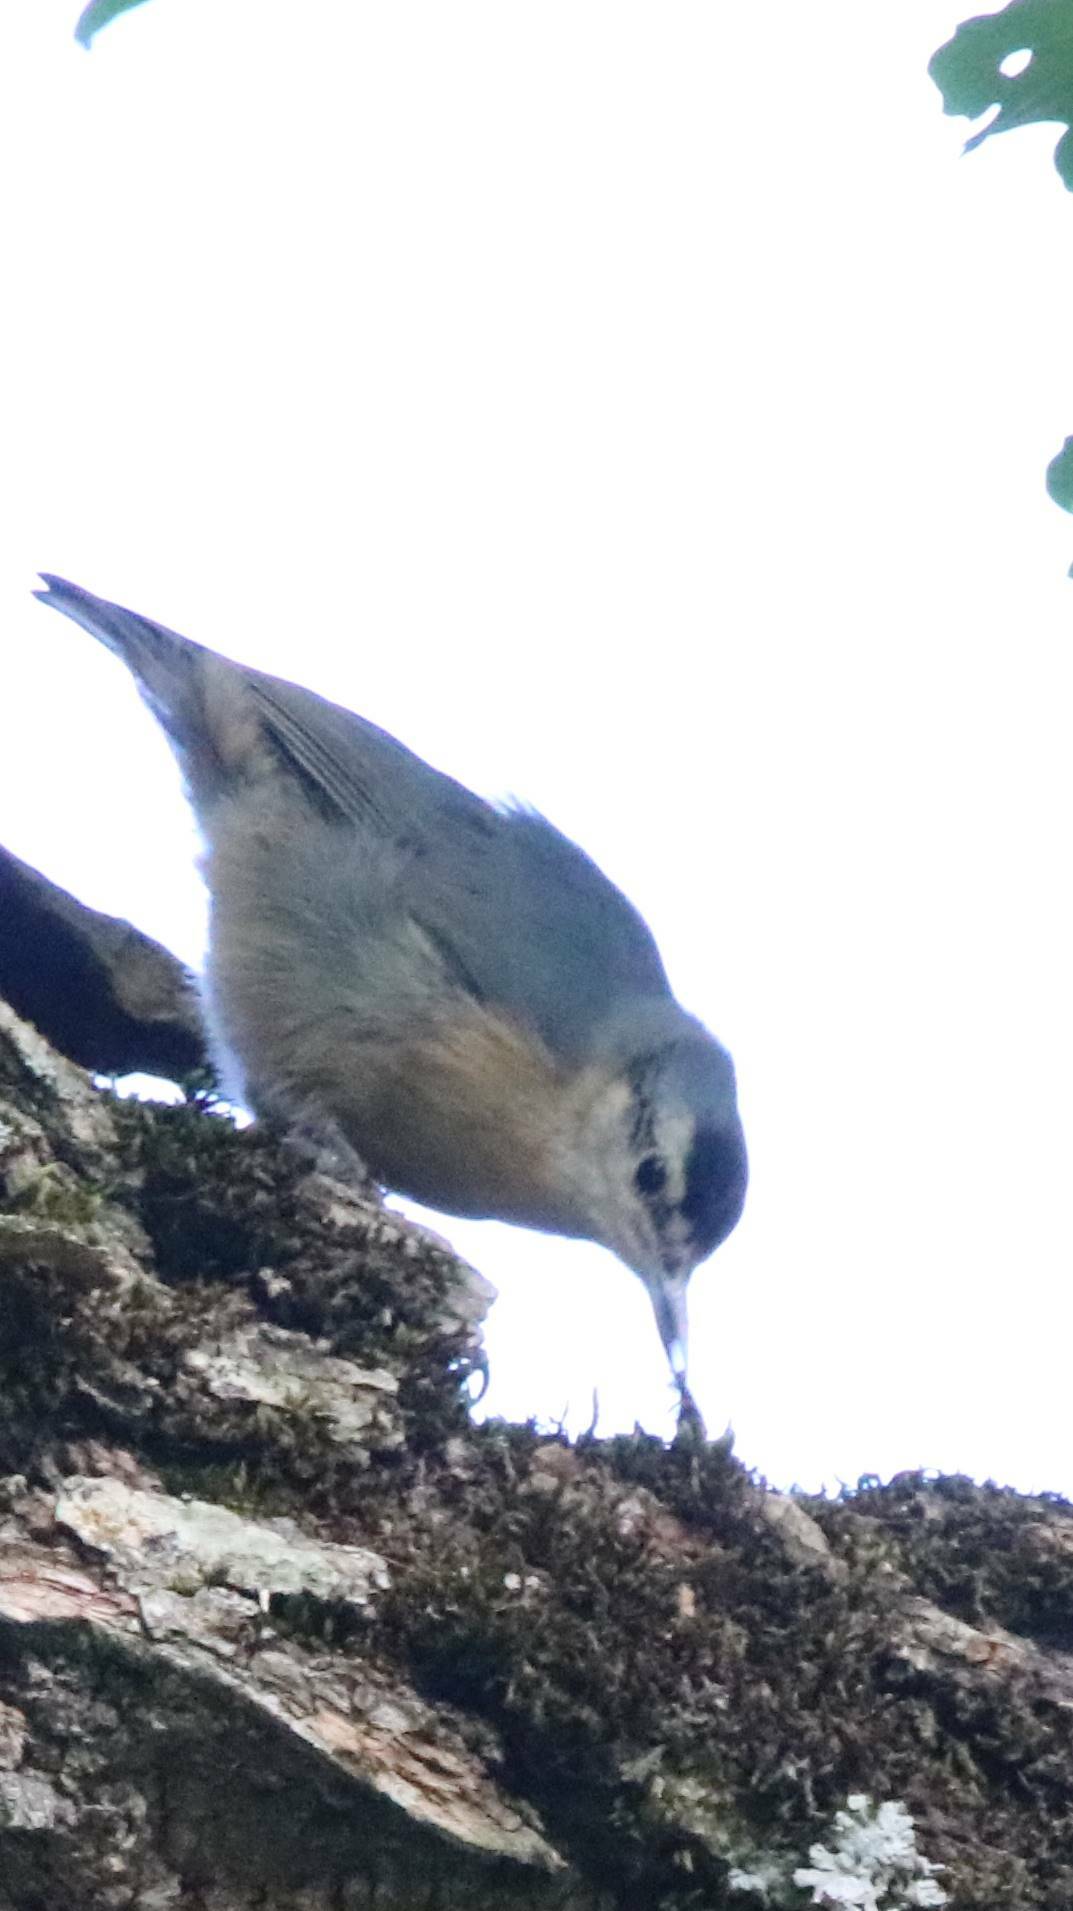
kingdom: Animalia
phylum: Chordata
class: Aves
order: Passeriformes
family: Sittidae
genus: Sitta
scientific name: Sitta ledanti
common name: Algerian nuthatch
